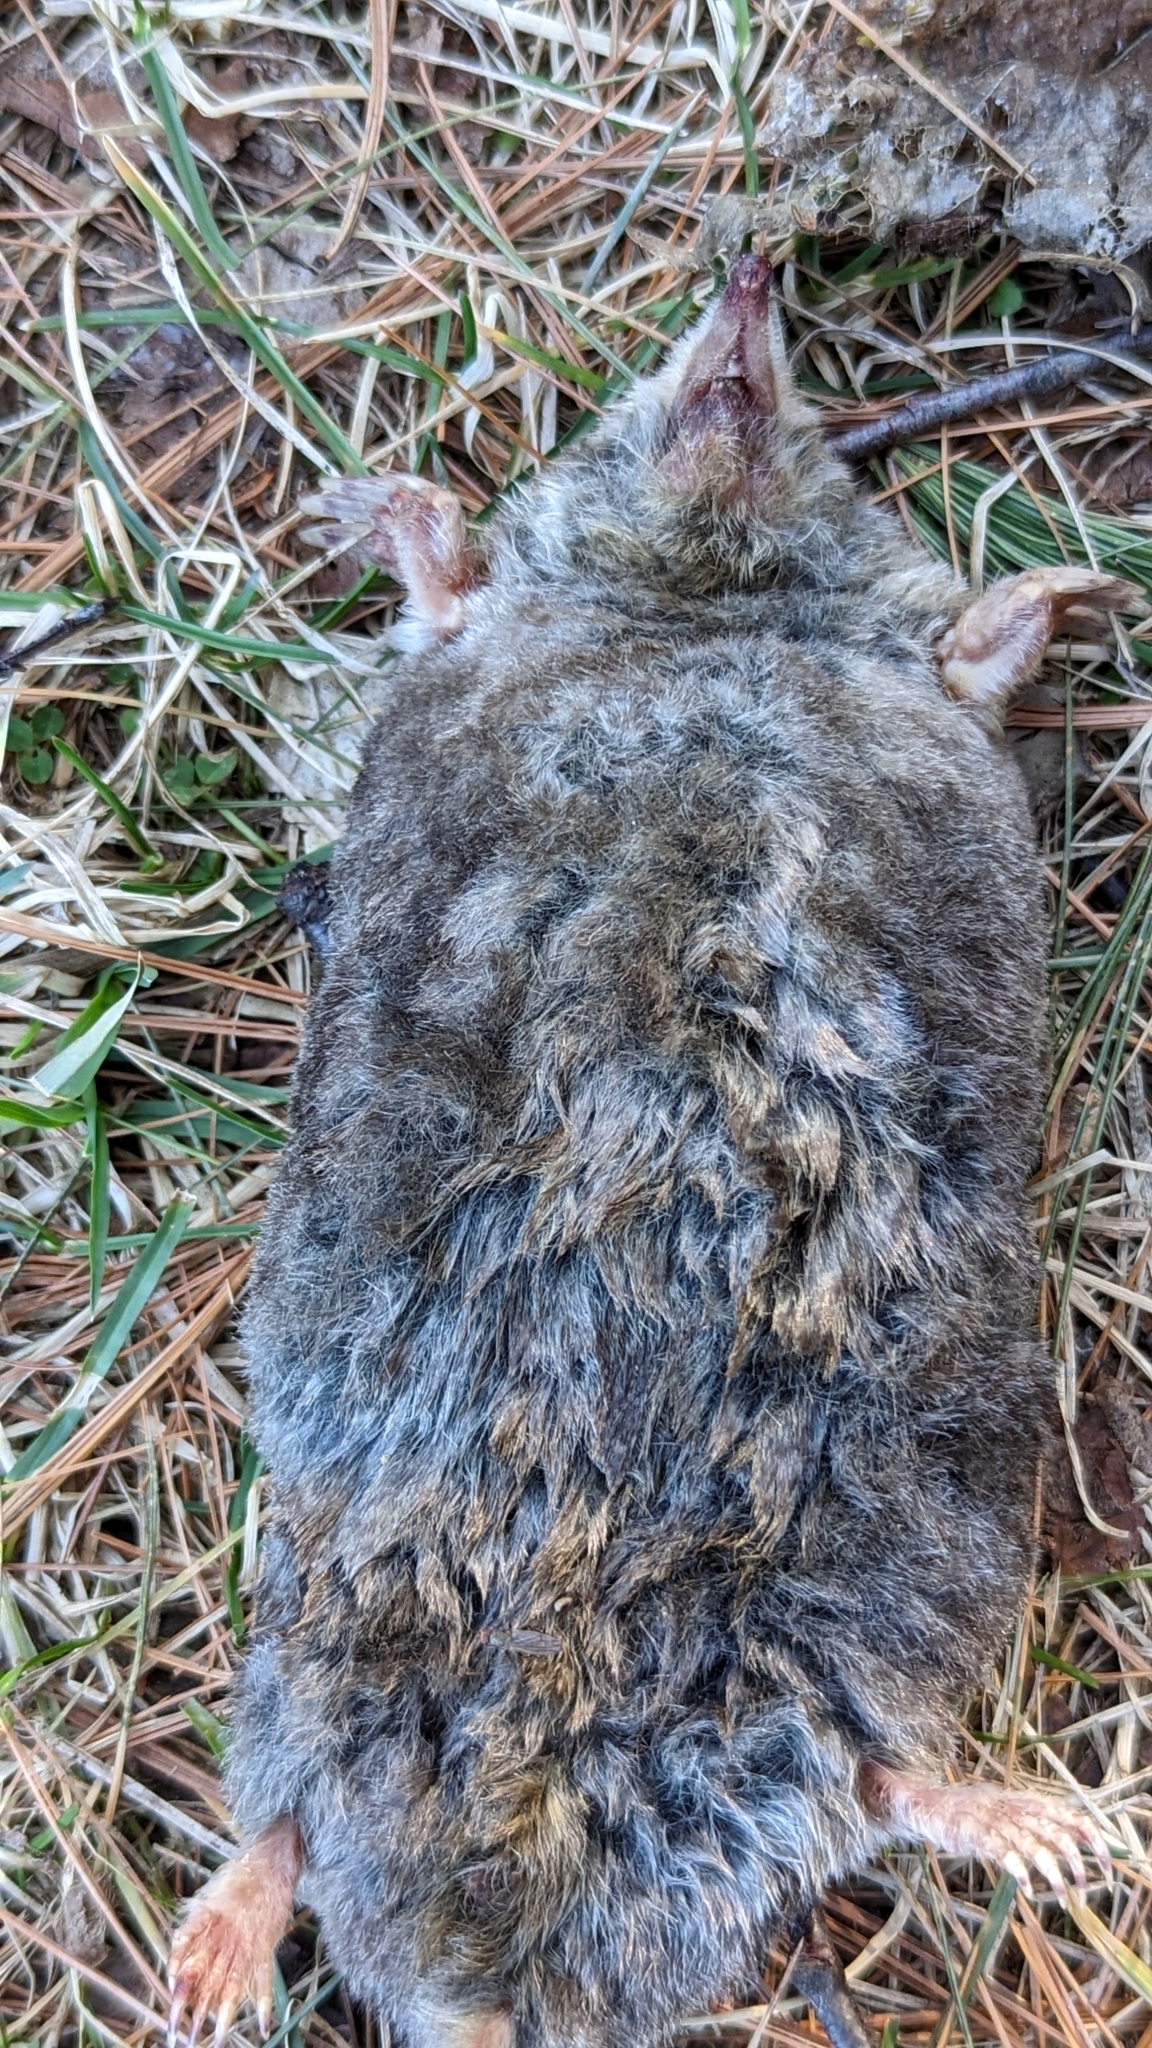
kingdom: Animalia
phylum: Chordata
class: Mammalia
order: Soricomorpha
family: Talpidae
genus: Scalopus
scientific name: Scalopus aquaticus
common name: Eastern mole
